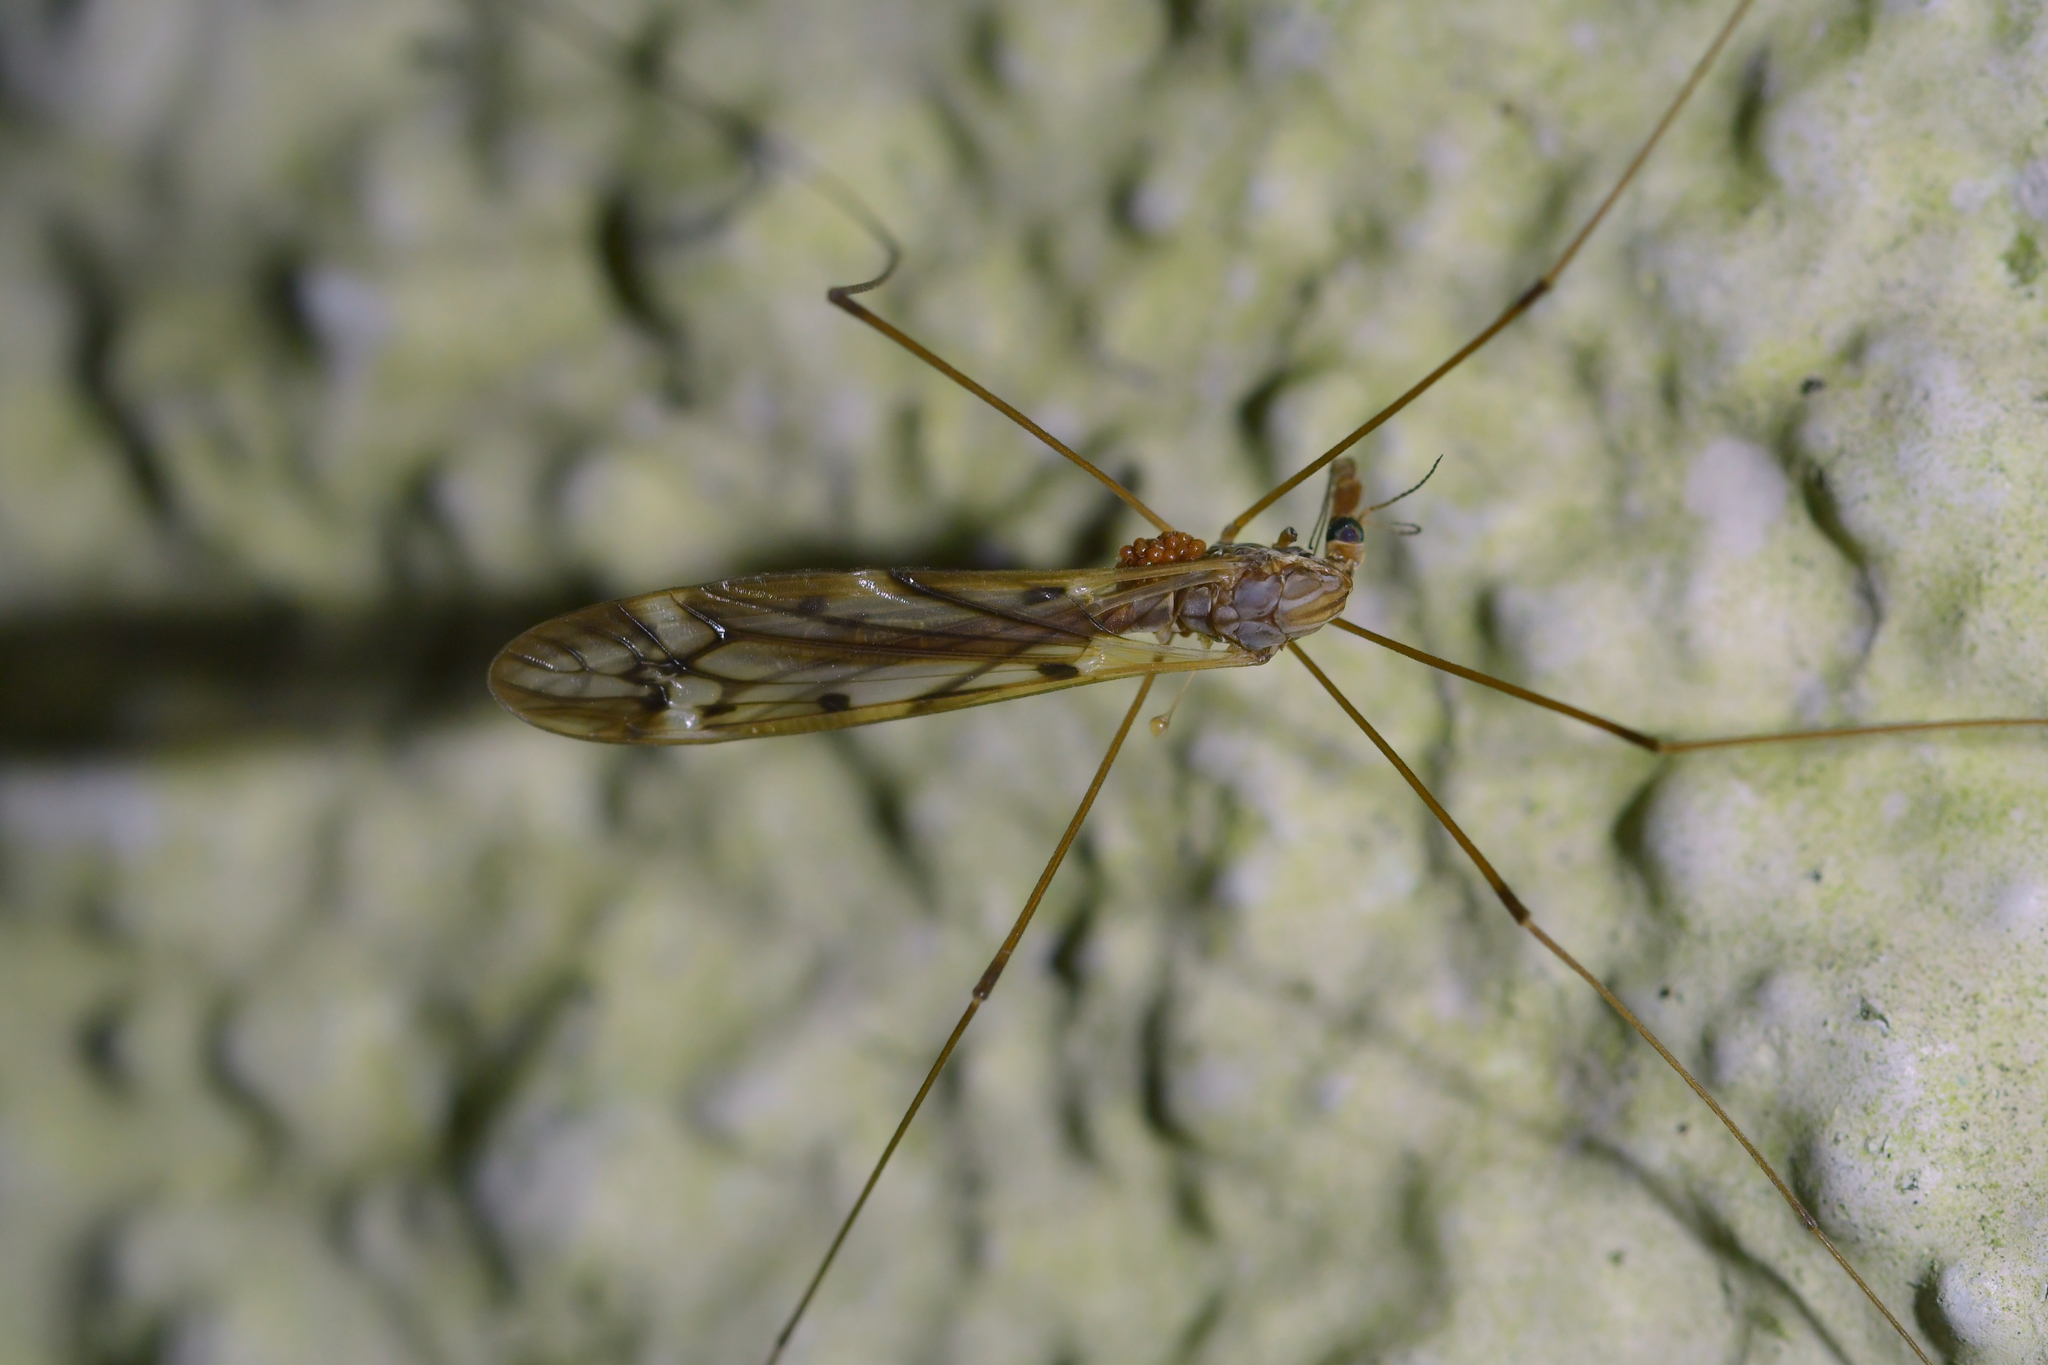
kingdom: Animalia
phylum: Arthropoda
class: Insecta
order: Diptera
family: Tipulidae
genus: Zelandotipula
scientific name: Zelandotipula fulva
